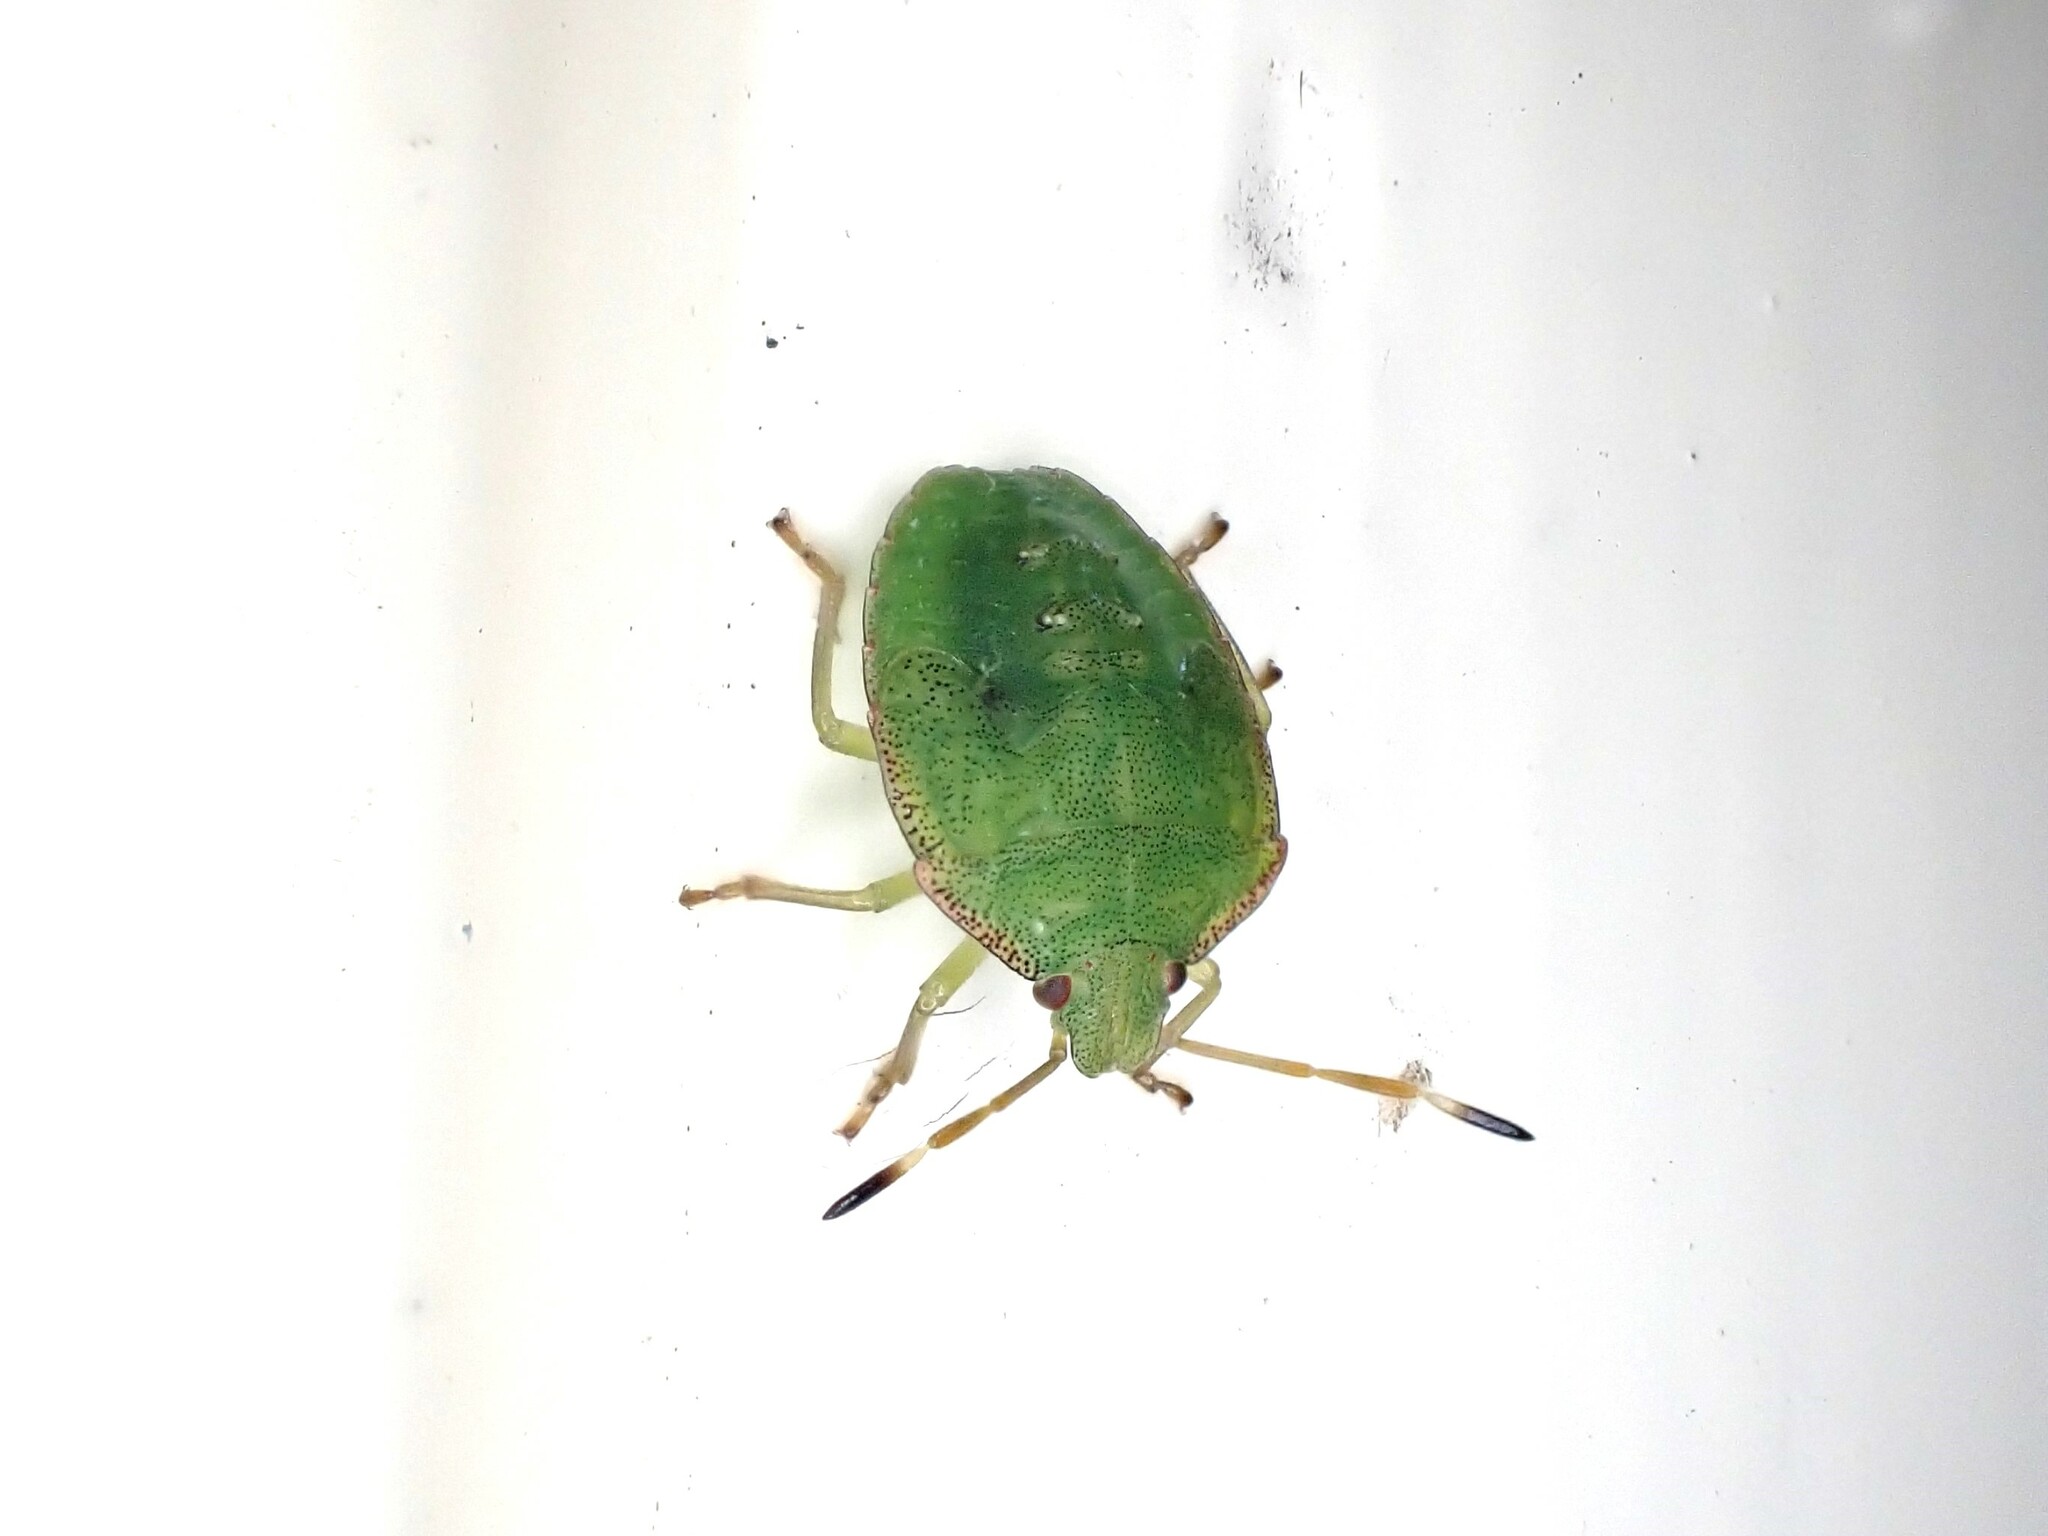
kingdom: Animalia
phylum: Arthropoda
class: Insecta
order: Hemiptera
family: Pentatomidae
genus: Cuspicona
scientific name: Cuspicona simplex
